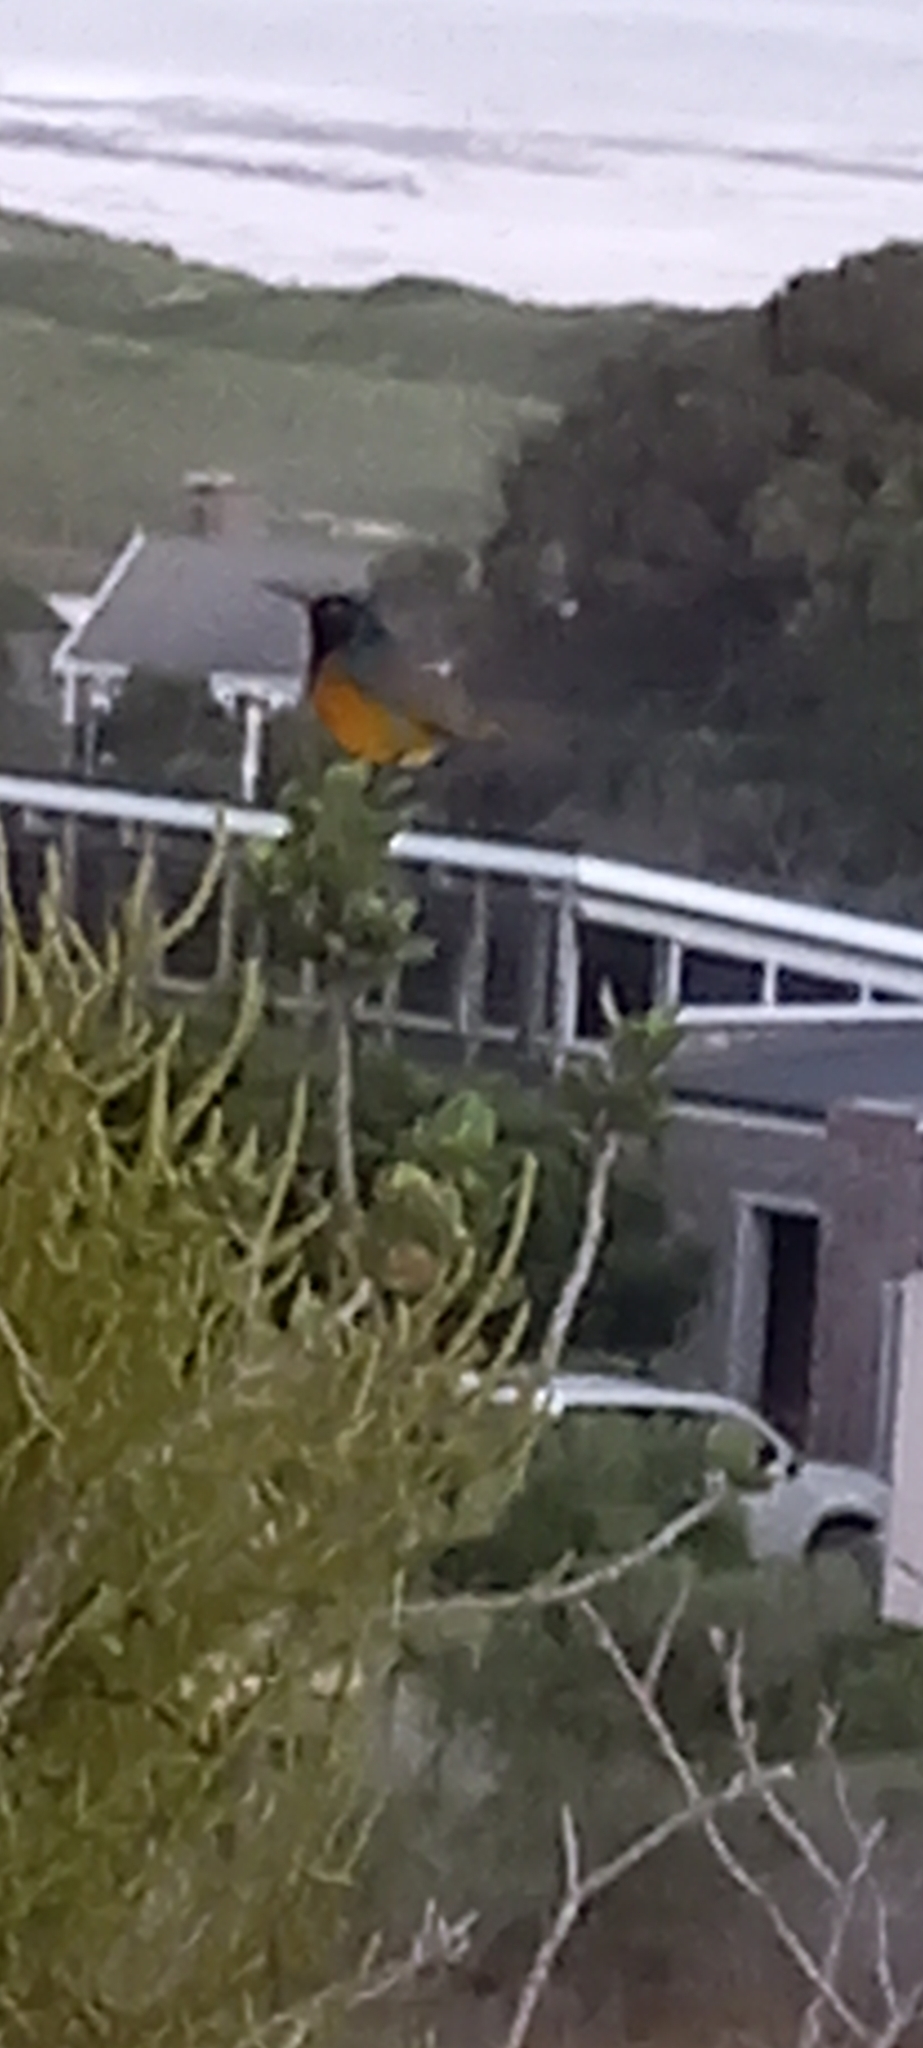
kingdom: Animalia
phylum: Chordata
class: Aves
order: Passeriformes
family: Nectariniidae
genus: Anthobaphes
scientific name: Anthobaphes violacea
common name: Orange-breasted sunbird
